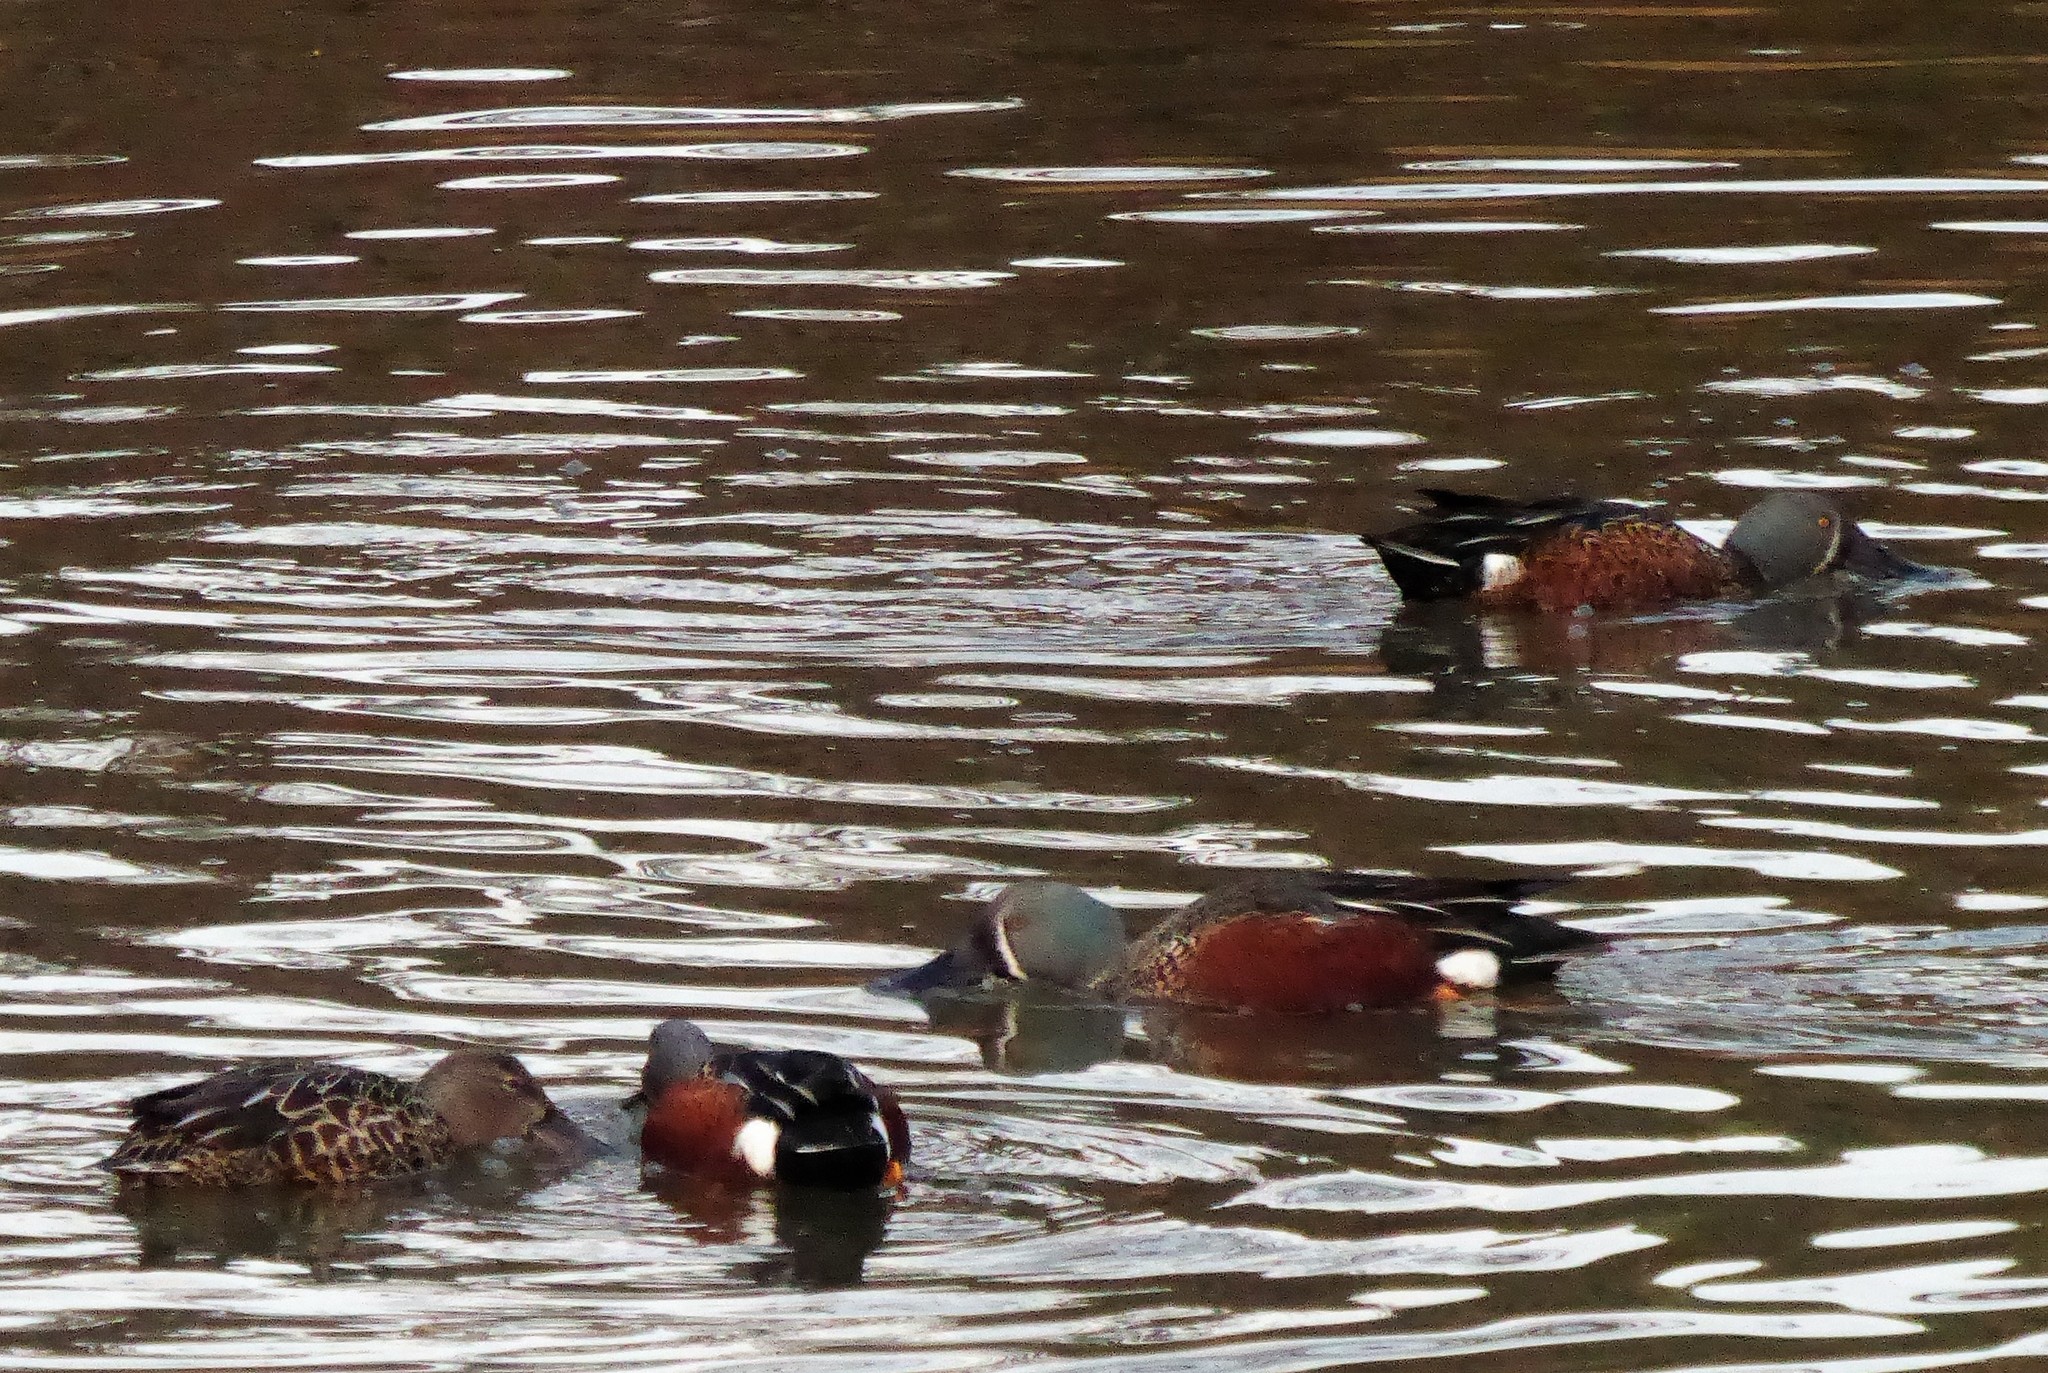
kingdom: Animalia
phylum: Chordata
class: Aves
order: Anseriformes
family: Anatidae
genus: Spatula
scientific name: Spatula rhynchotis
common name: Australian shoveler
